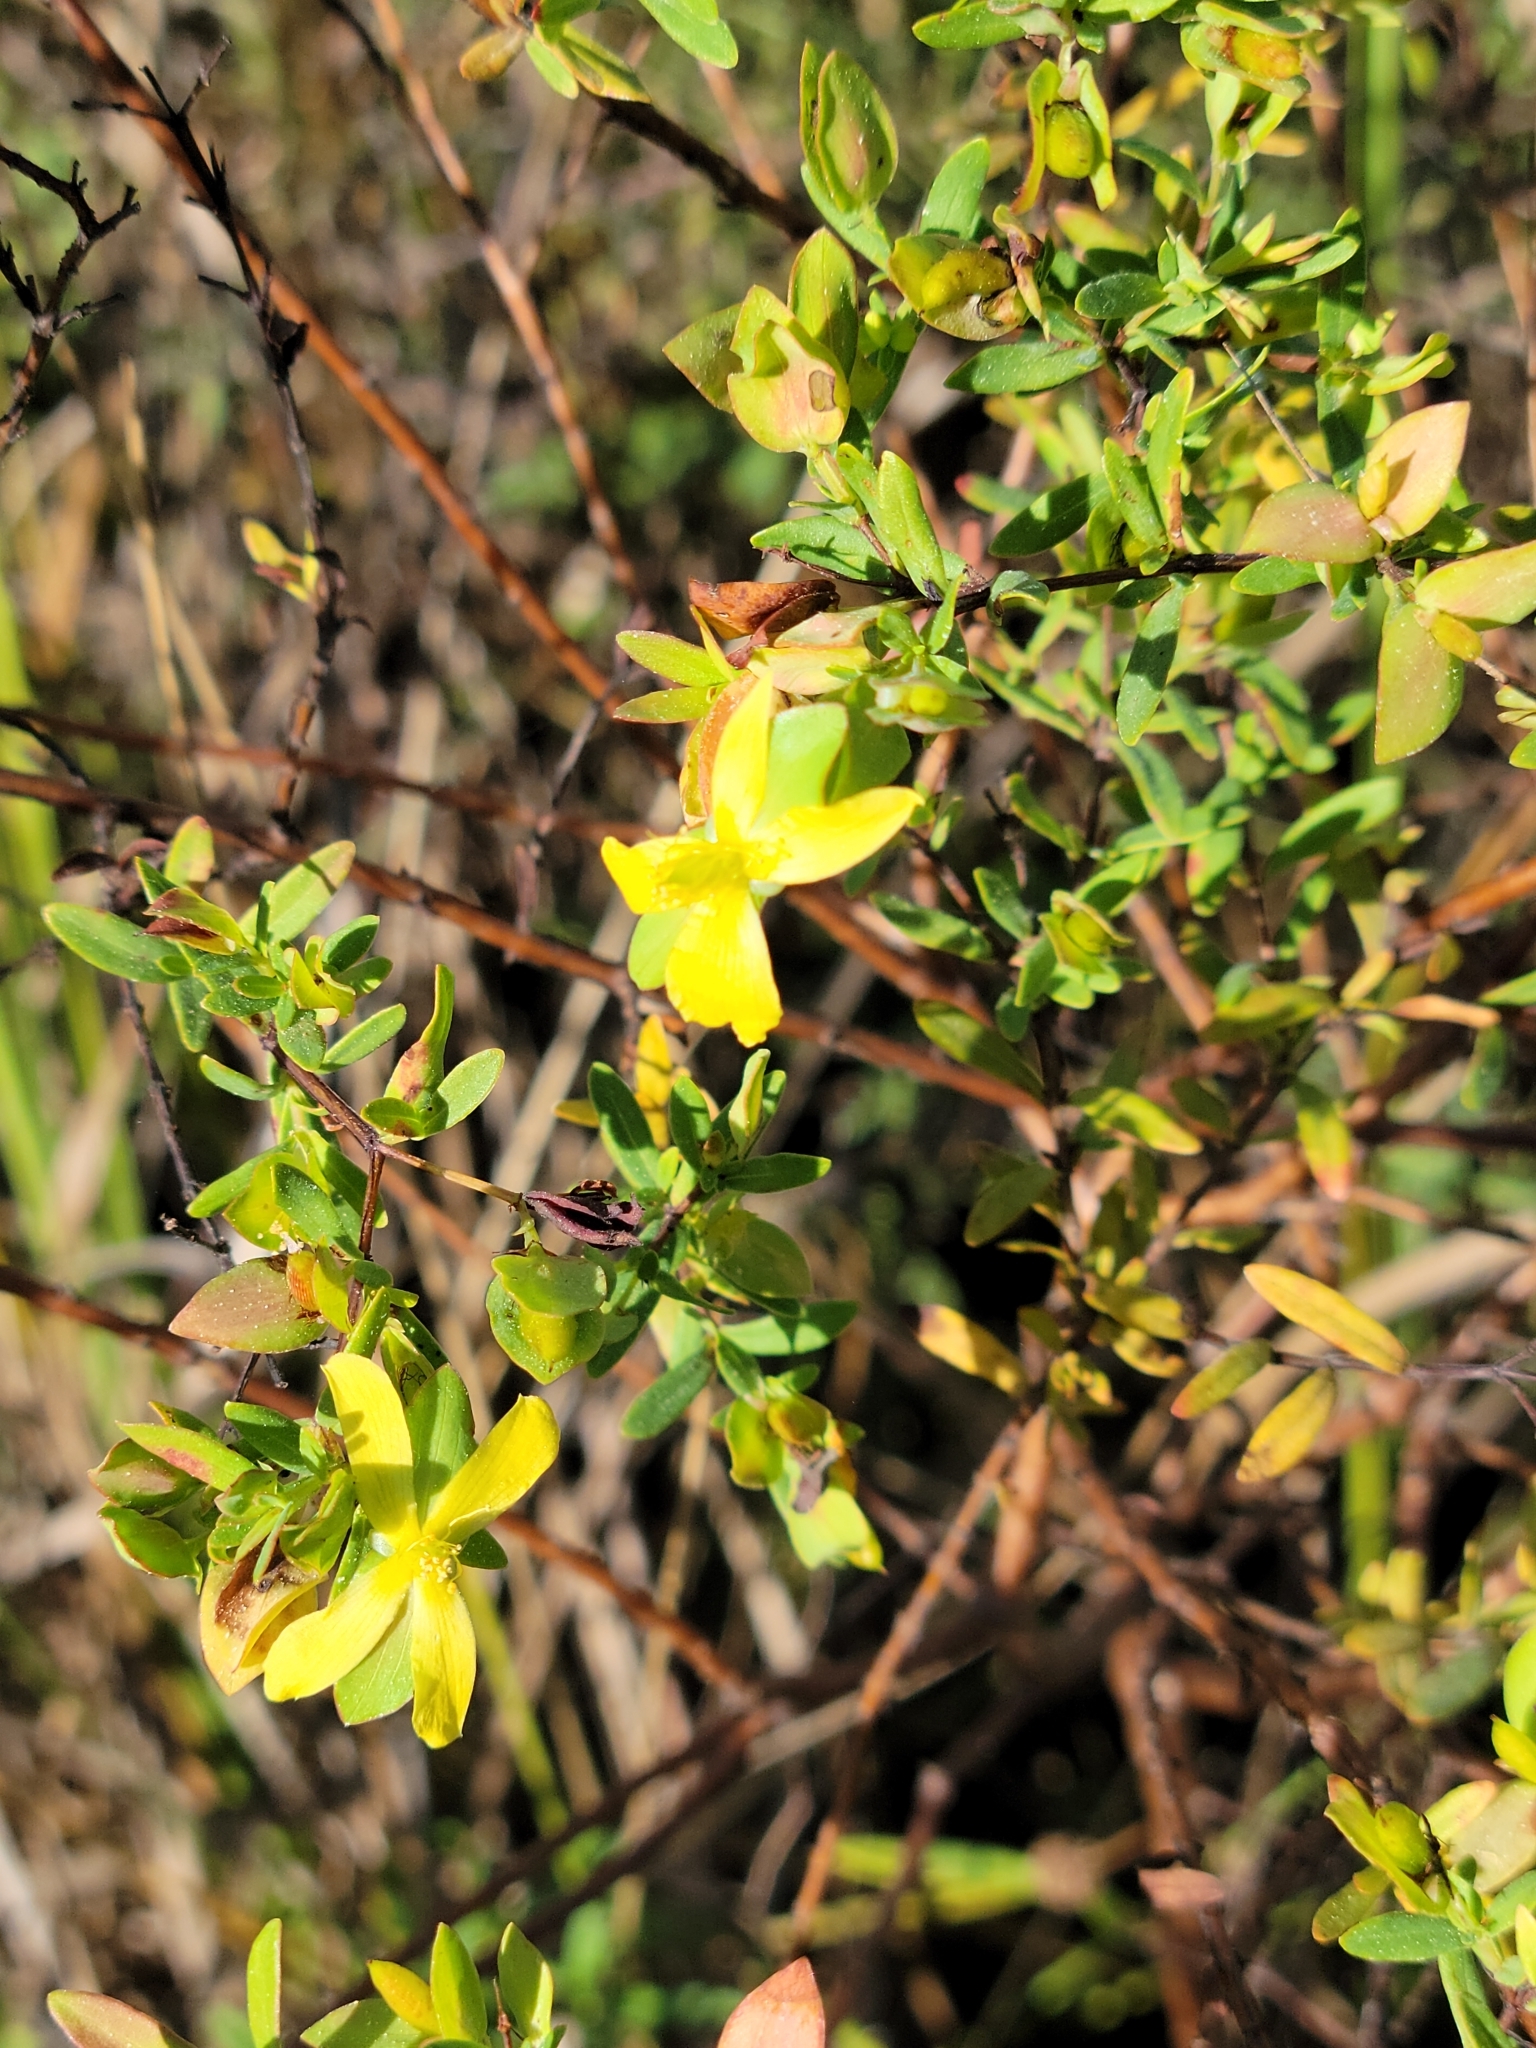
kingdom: Plantae
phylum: Tracheophyta
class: Magnoliopsida
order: Malpighiales
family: Hypericaceae
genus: Hypericum
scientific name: Hypericum hypericoides
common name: St. andrew's cross
